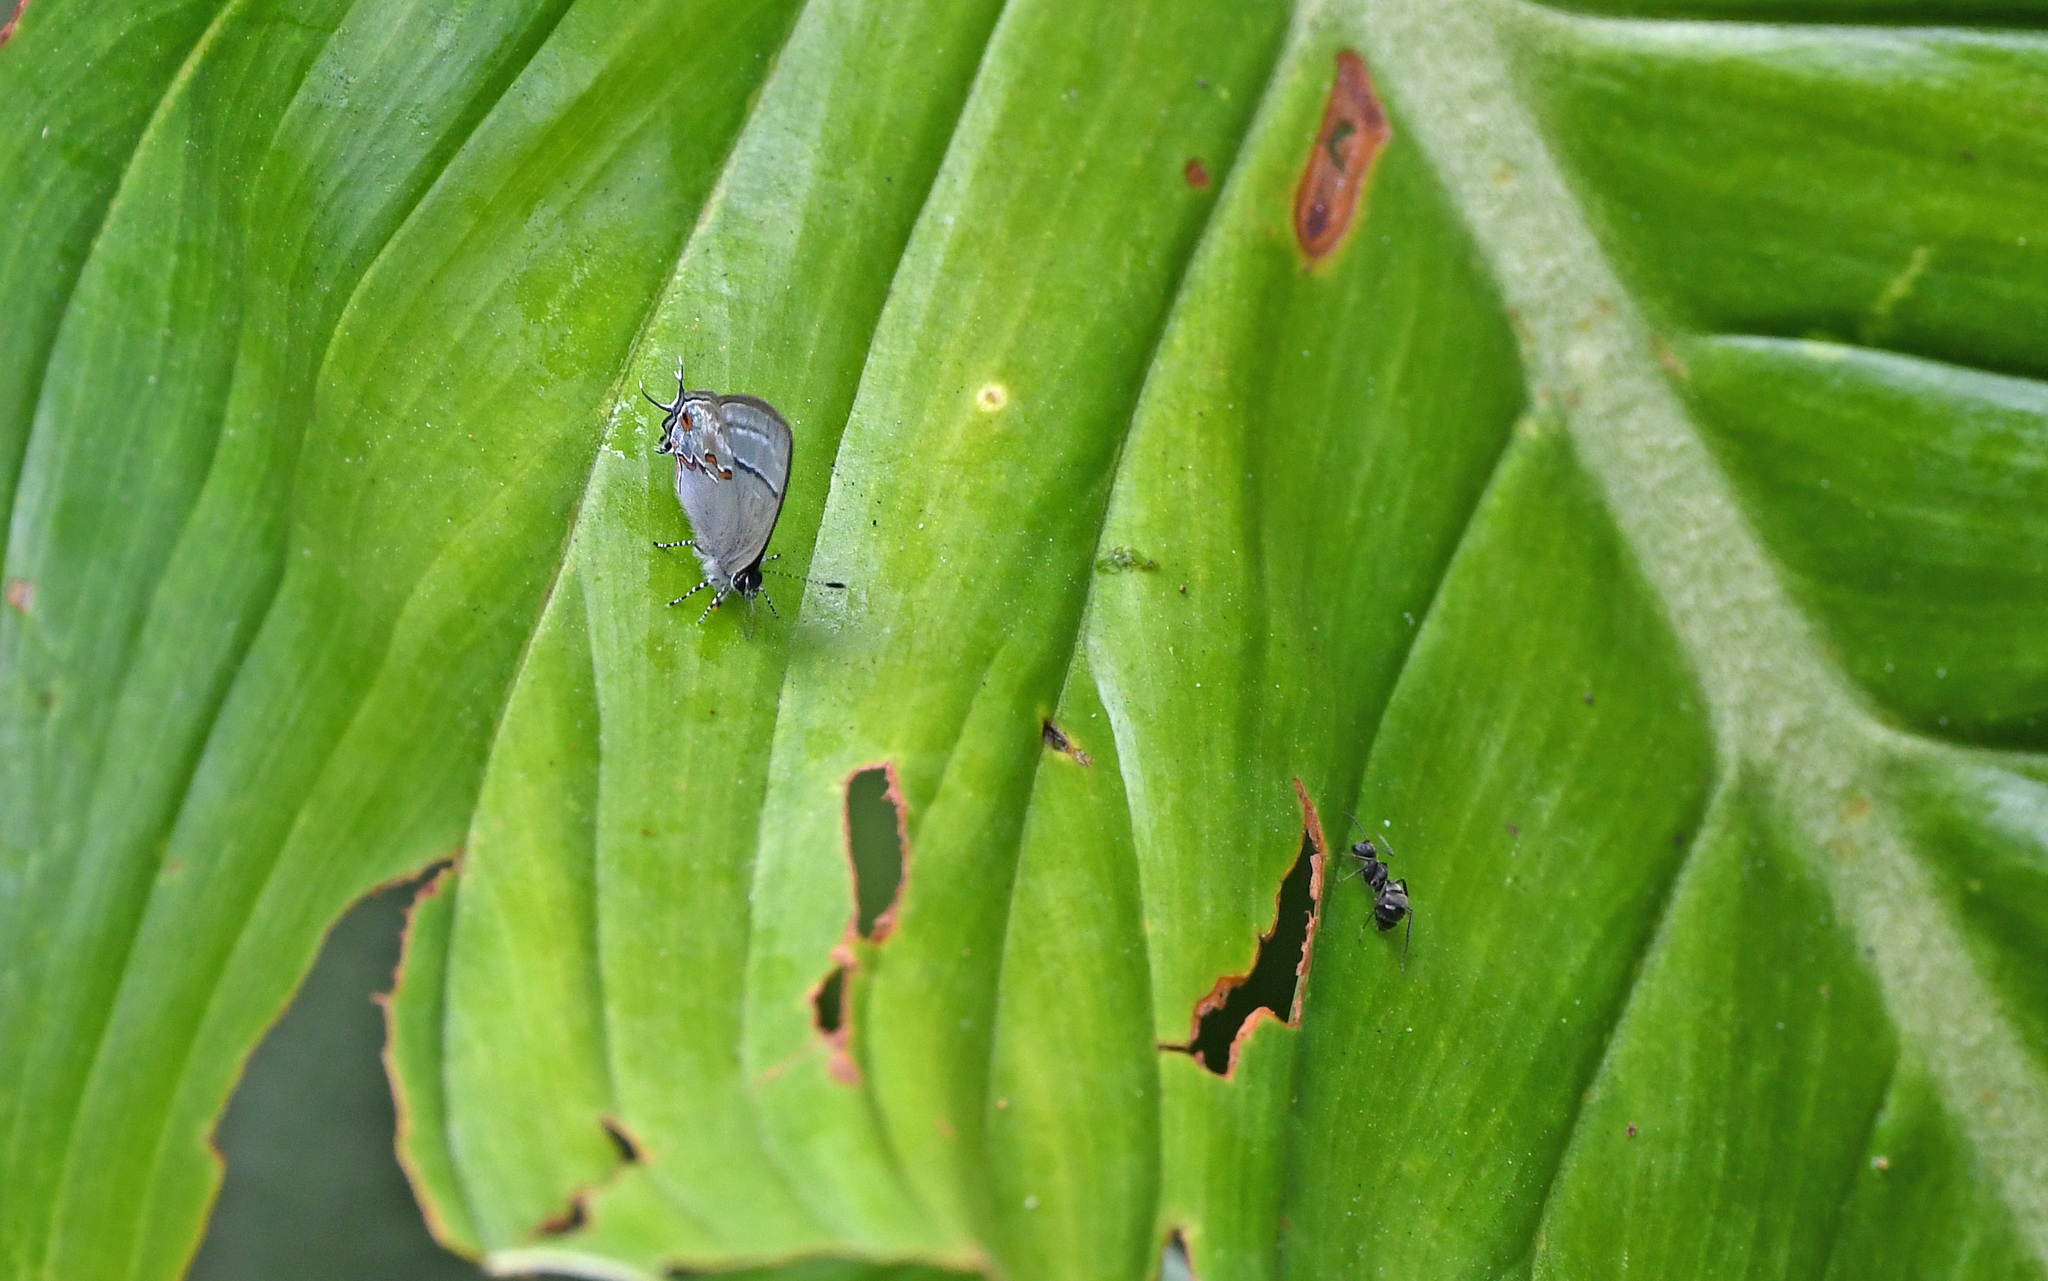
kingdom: Animalia
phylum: Arthropoda
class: Insecta
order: Lepidoptera
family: Lycaenidae
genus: Aubergina
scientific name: Aubergina hesychia
